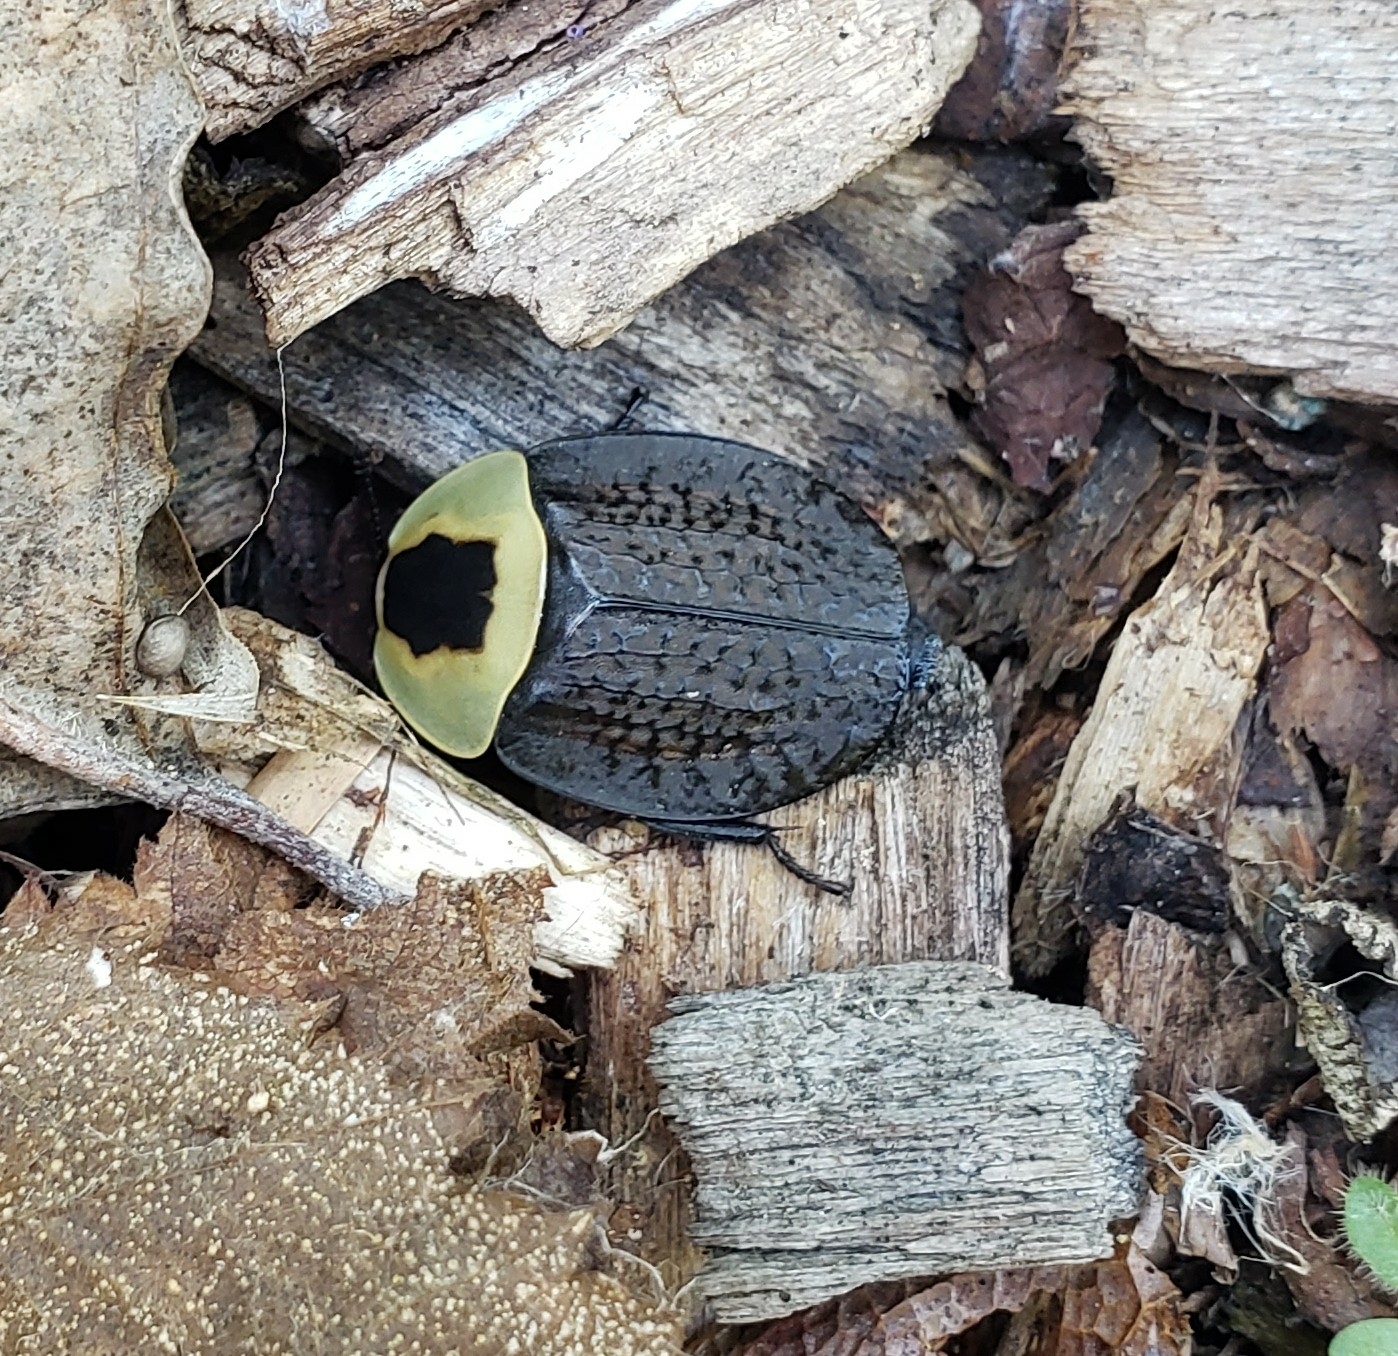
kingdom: Animalia
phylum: Arthropoda
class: Insecta
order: Coleoptera
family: Staphylinidae
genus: Necrophila
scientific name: Necrophila americana
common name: American carrion beetle
